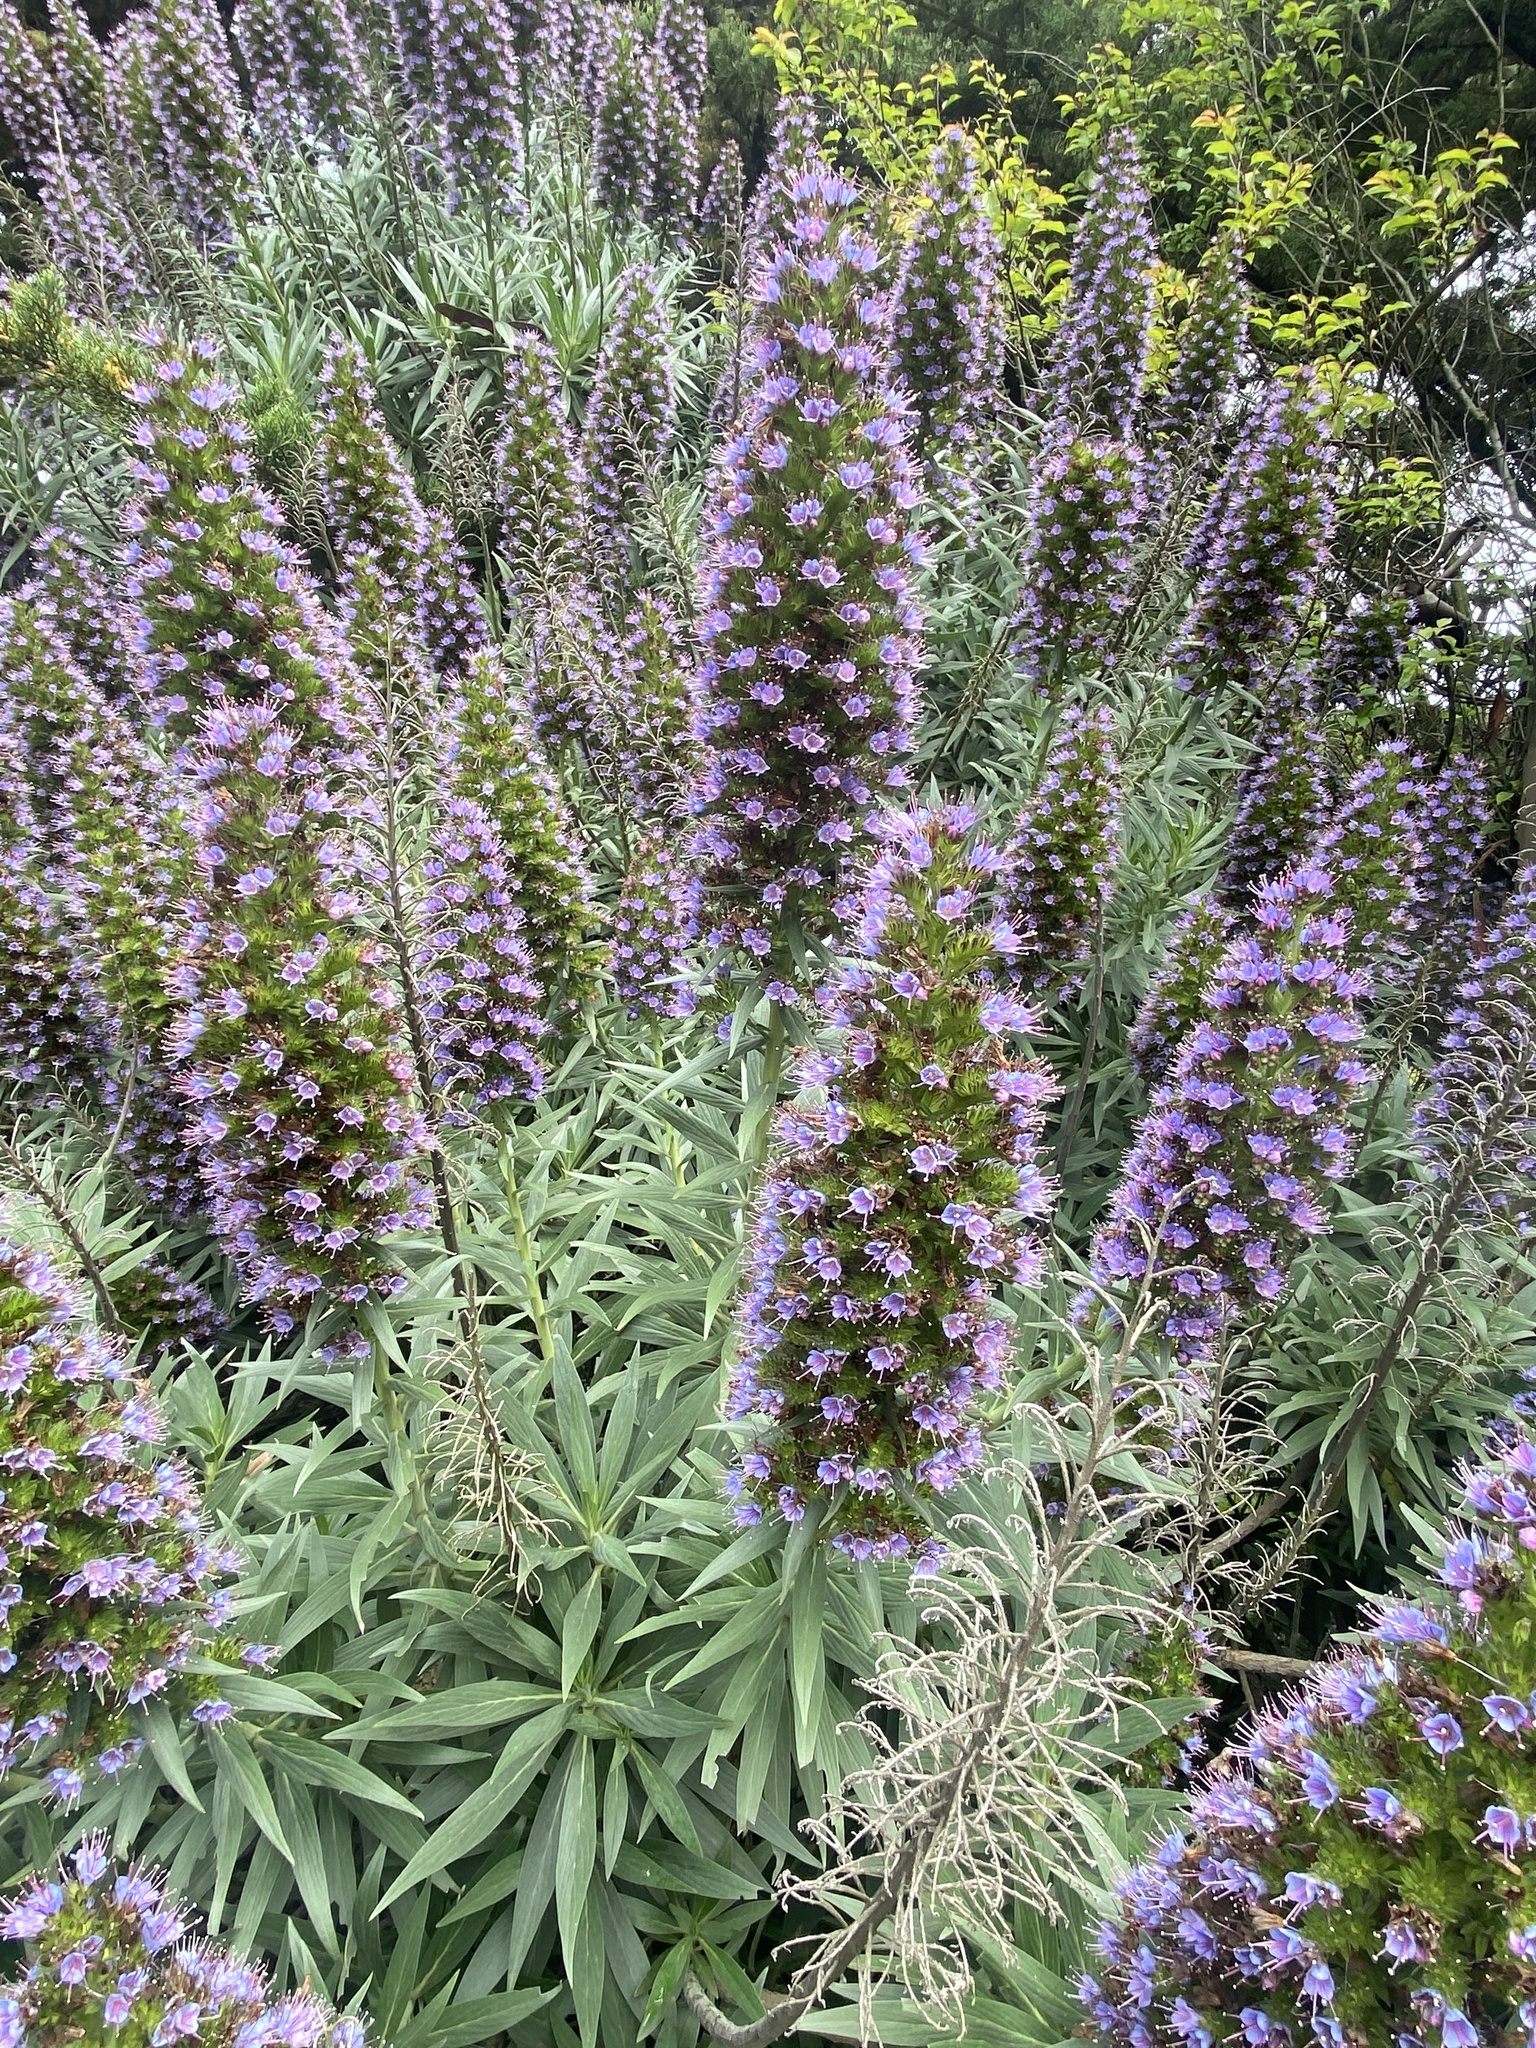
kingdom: Plantae
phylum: Tracheophyta
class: Magnoliopsida
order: Boraginales
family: Boraginaceae
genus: Echium
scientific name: Echium candicans
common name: Pride of madeira
